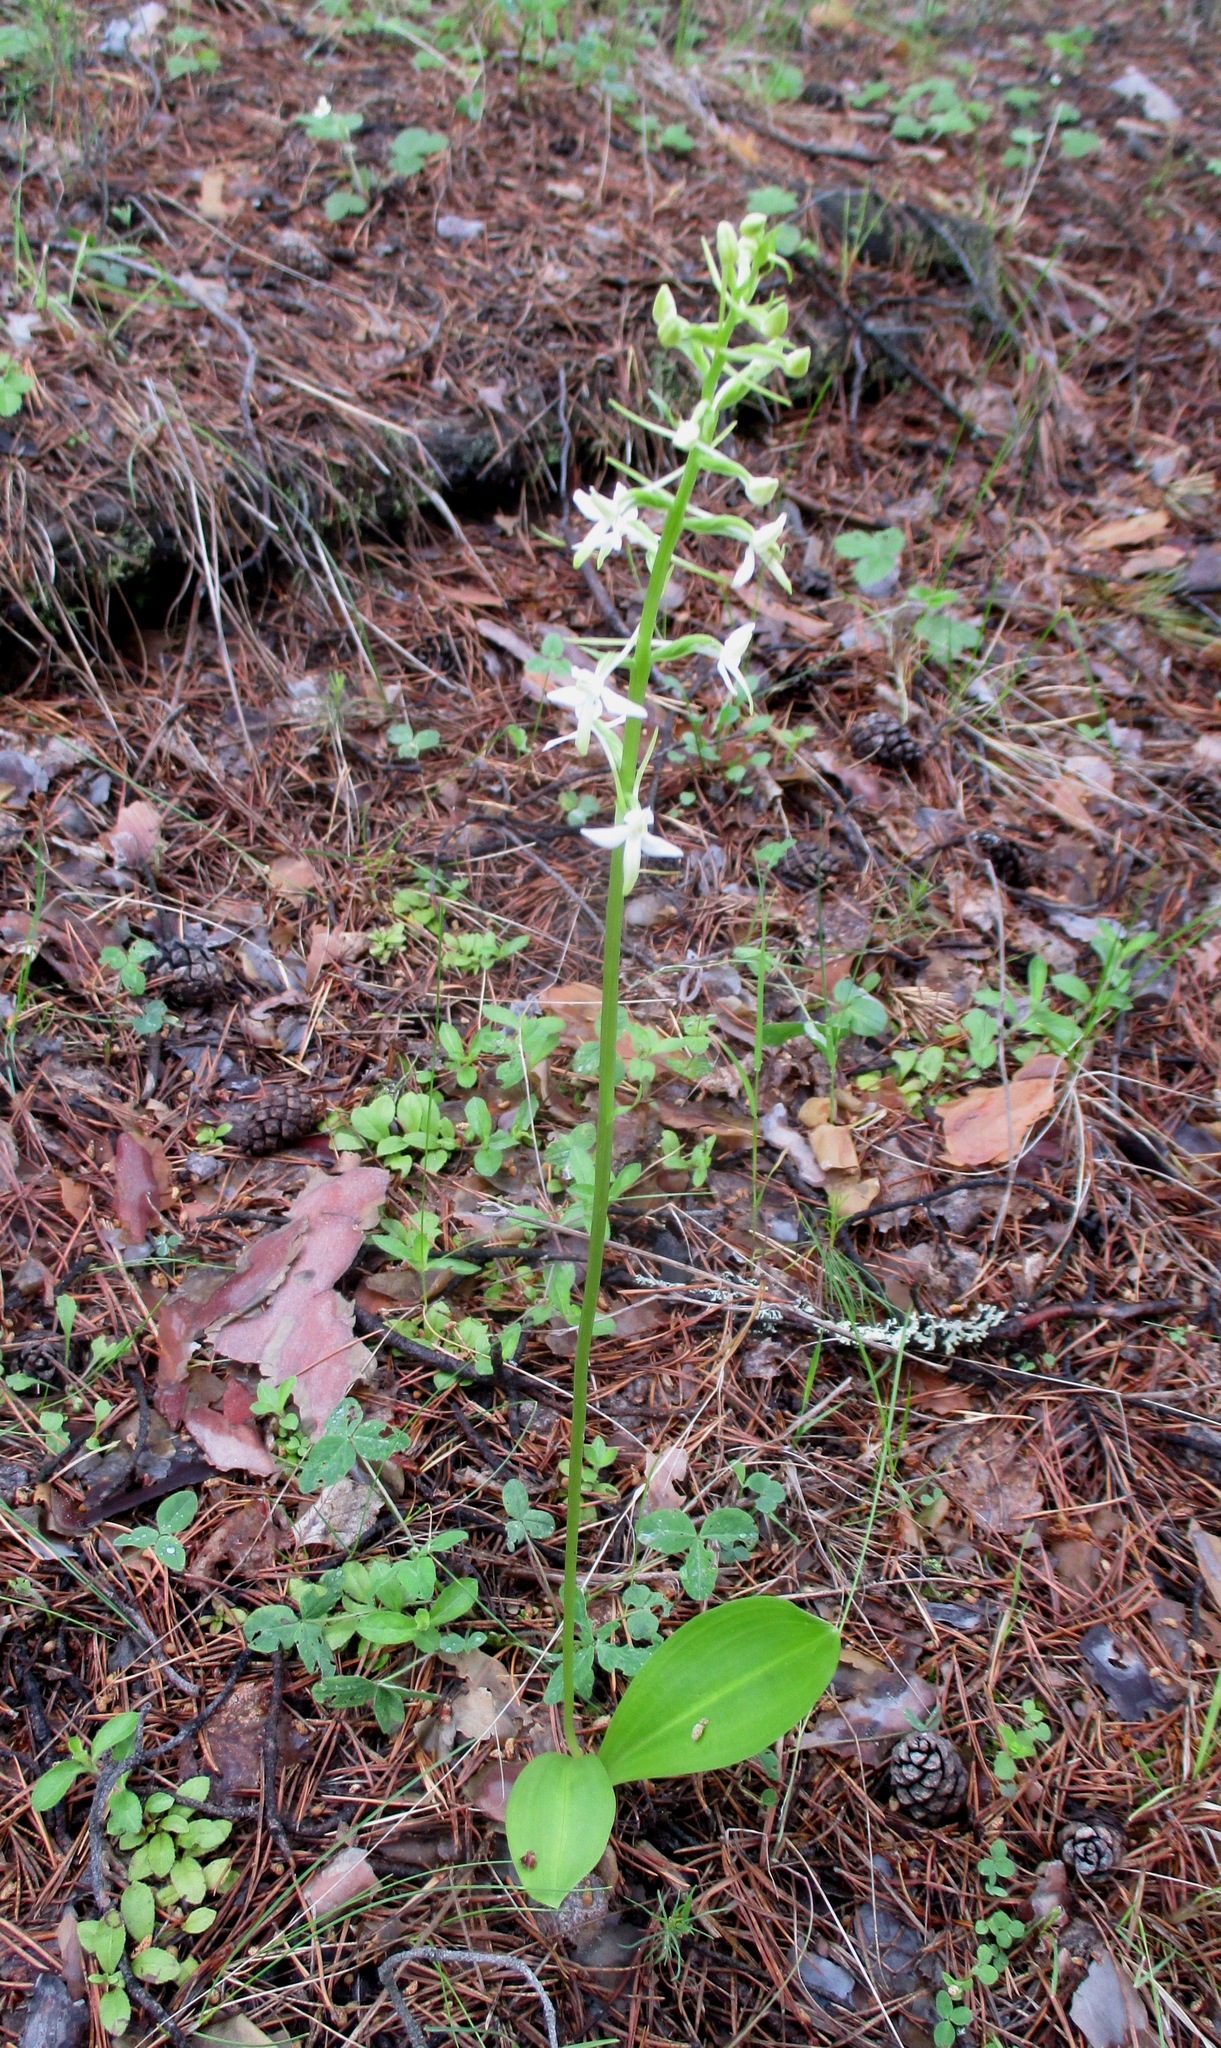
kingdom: Plantae
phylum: Tracheophyta
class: Liliopsida
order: Asparagales
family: Orchidaceae
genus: Platanthera
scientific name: Platanthera bifolia
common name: Lesser butterfly-orchid
